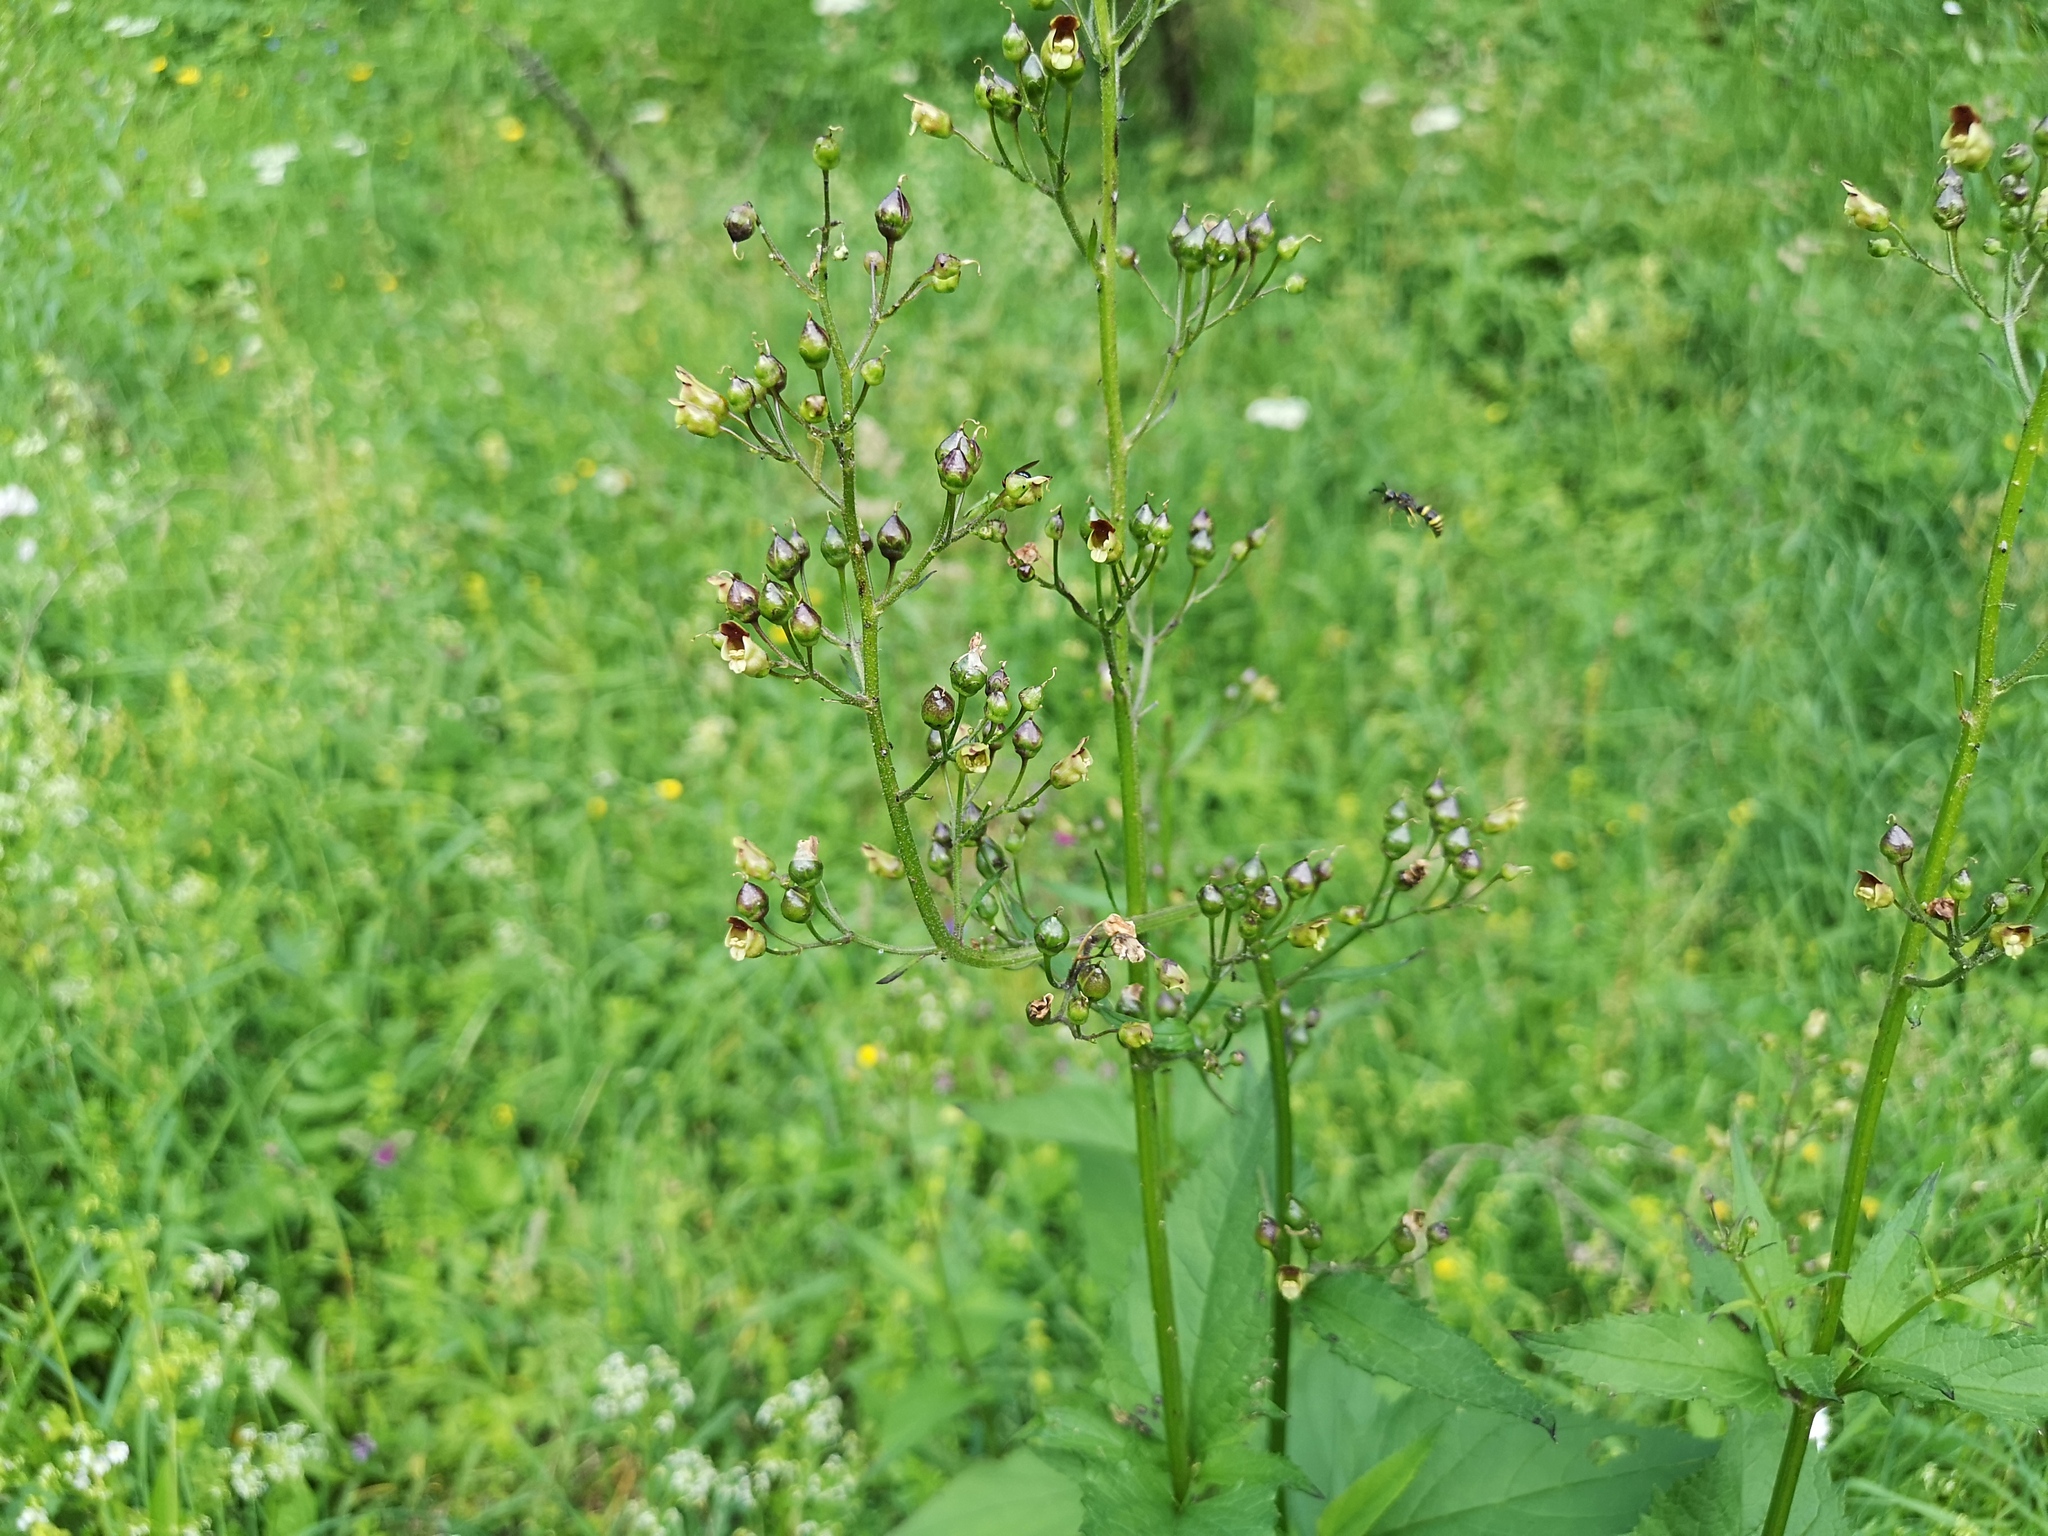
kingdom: Plantae
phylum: Tracheophyta
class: Magnoliopsida
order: Lamiales
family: Scrophulariaceae
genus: Scrophularia
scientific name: Scrophularia nodosa
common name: Common figwort
